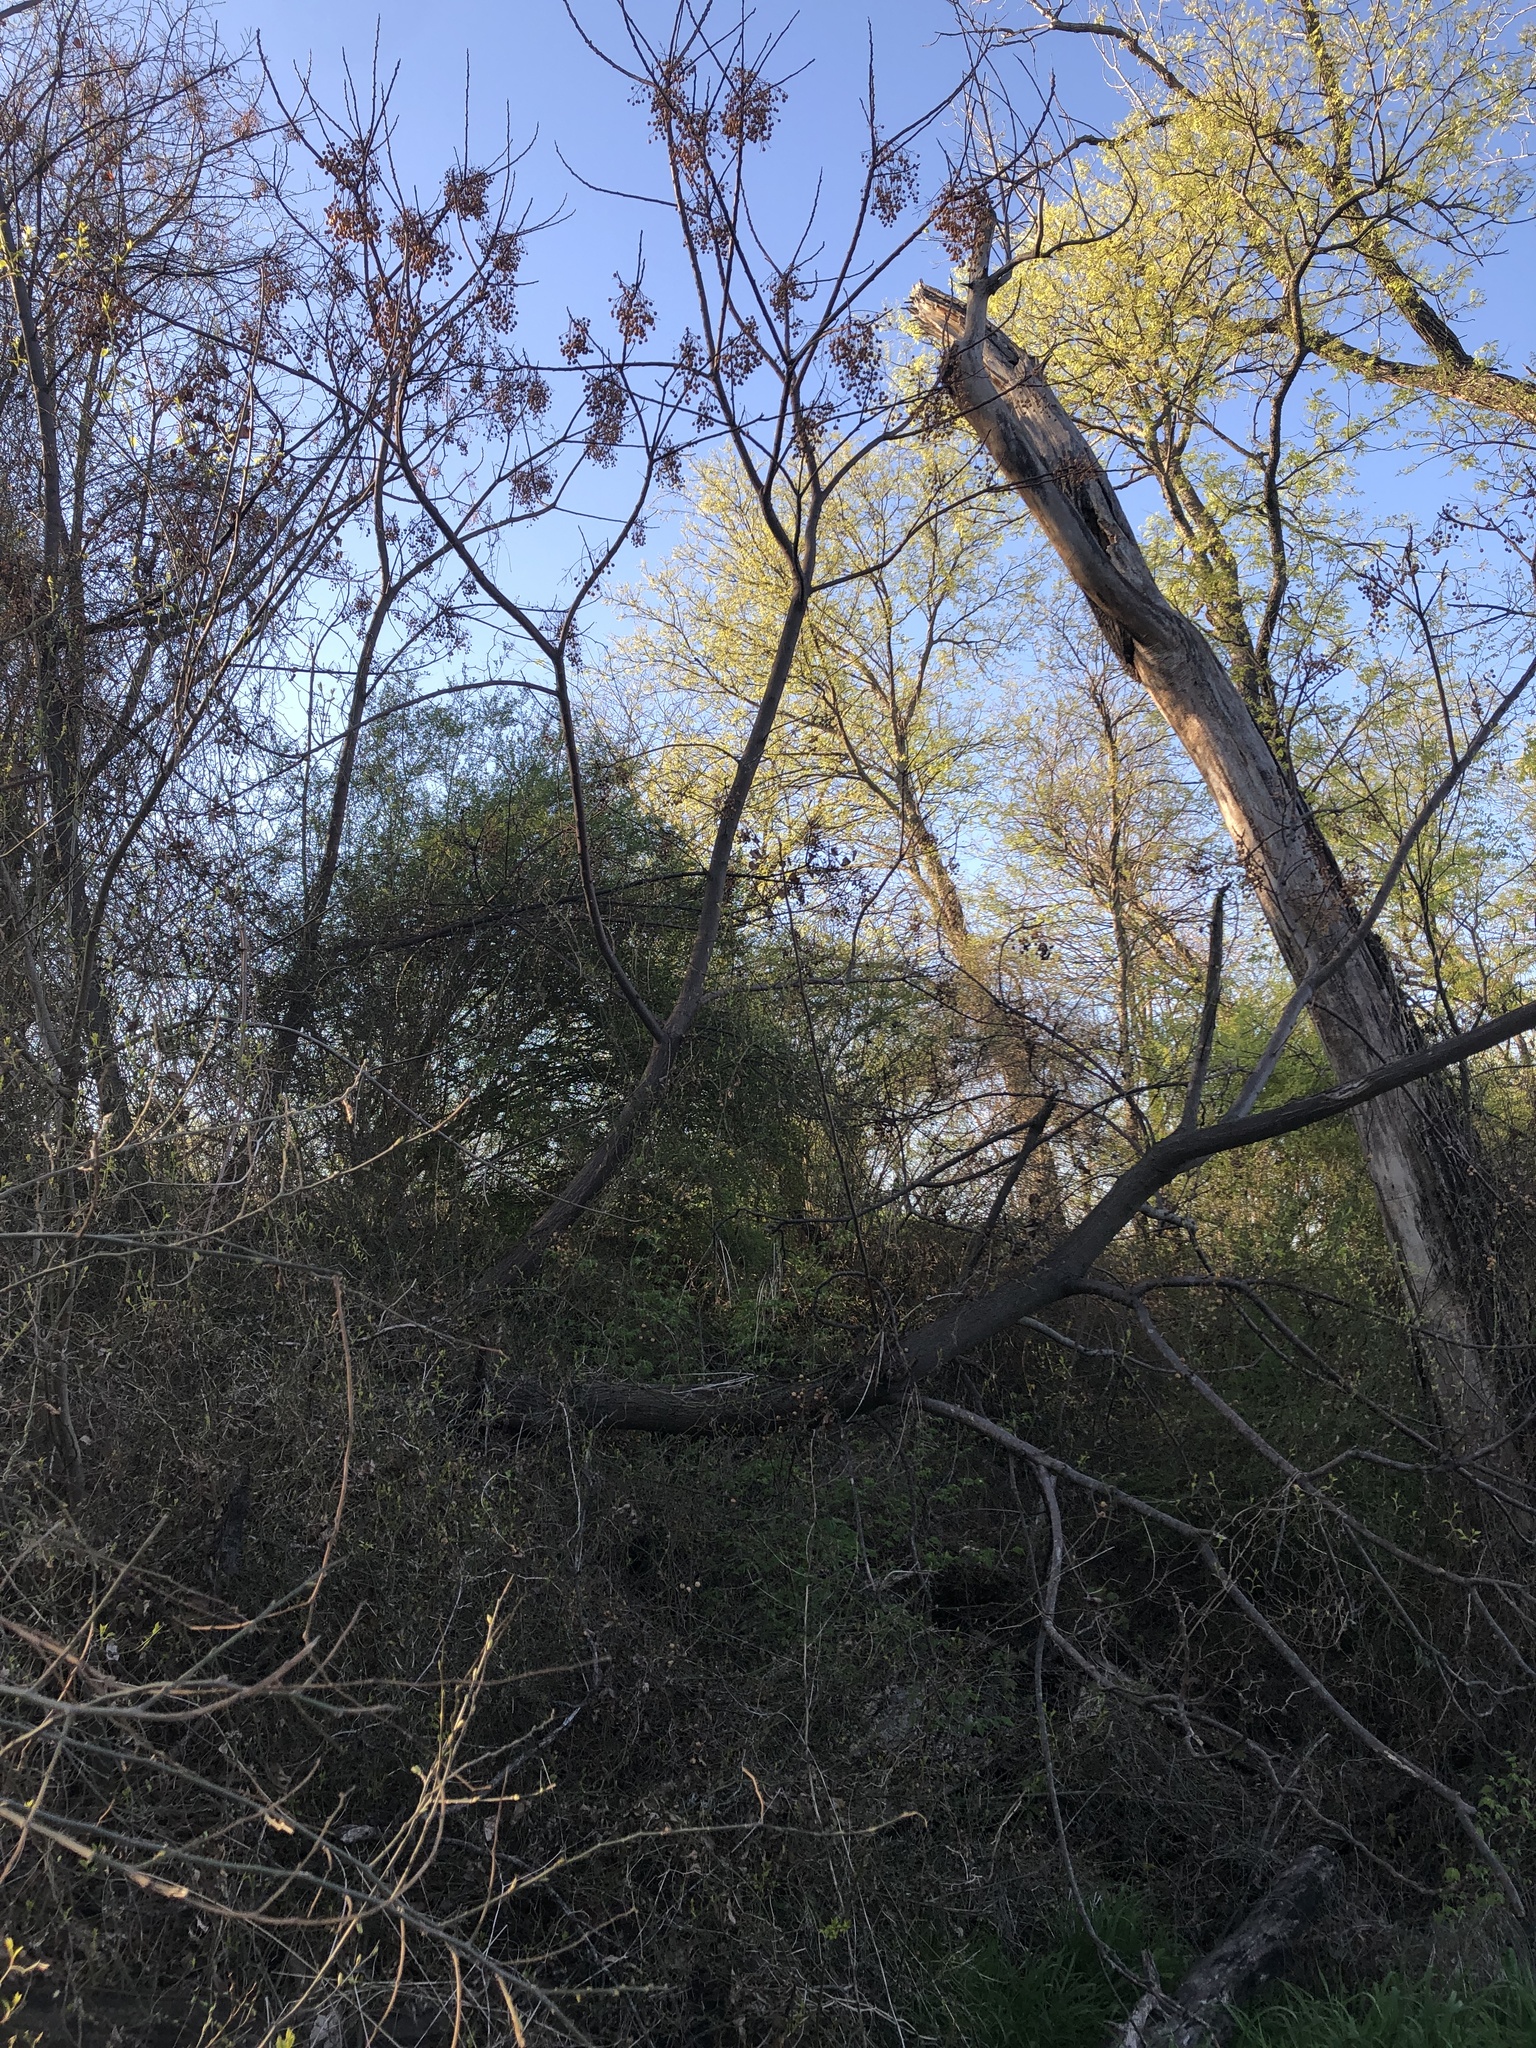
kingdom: Plantae
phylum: Tracheophyta
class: Magnoliopsida
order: Sapindales
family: Meliaceae
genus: Melia
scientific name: Melia azedarach
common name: Chinaberrytree
